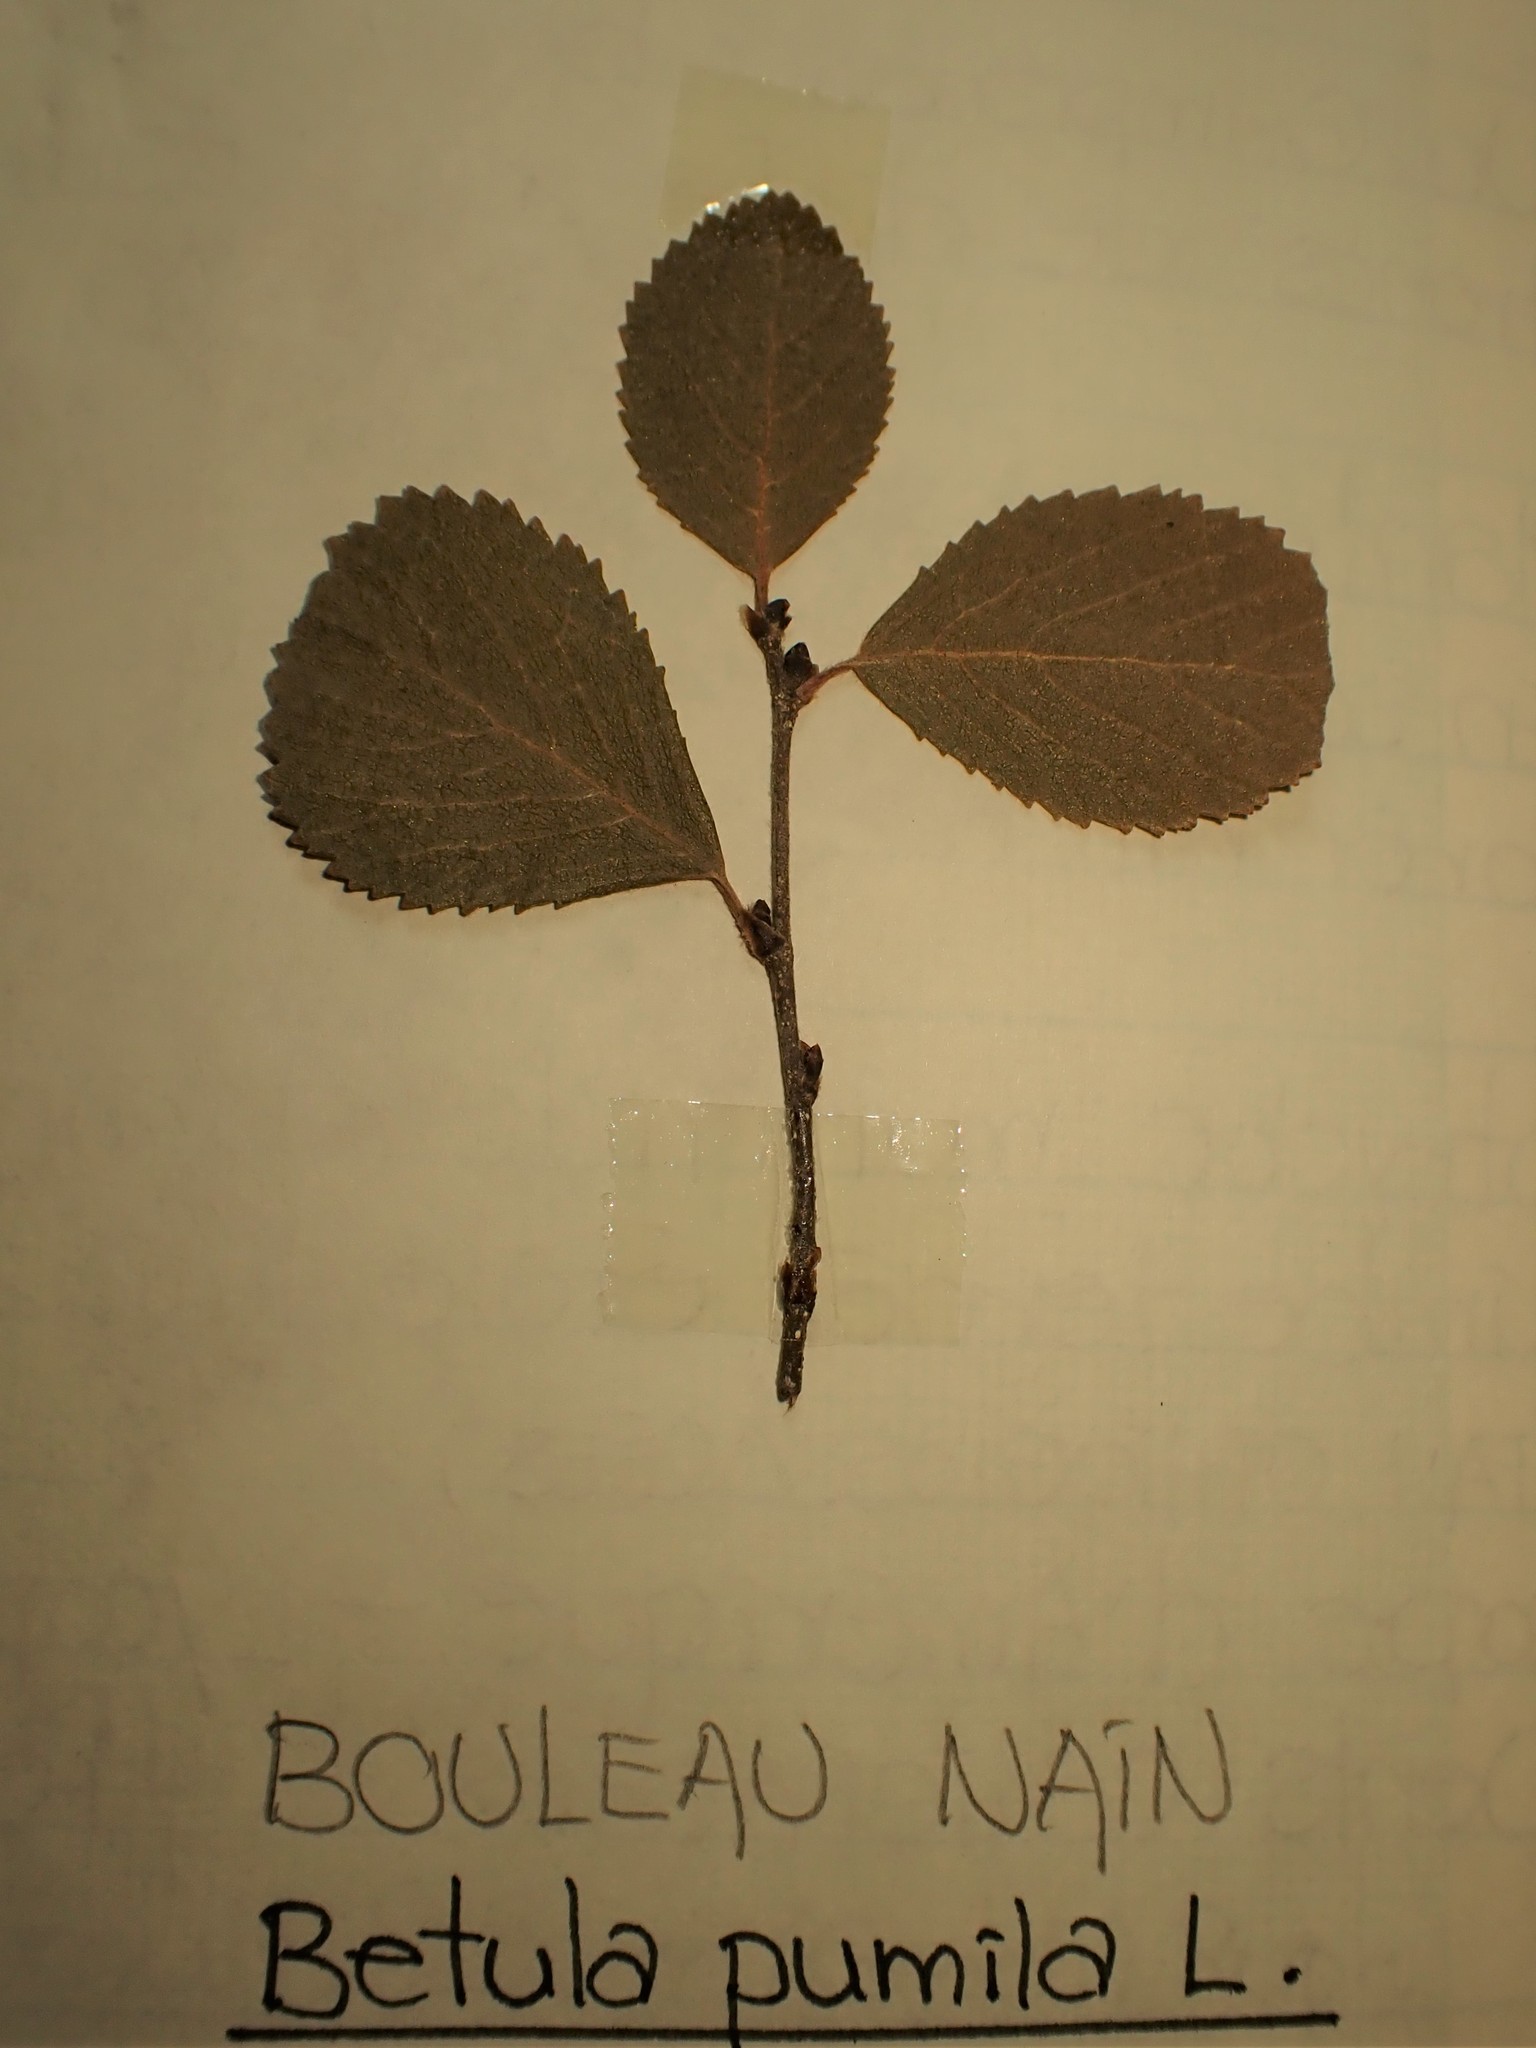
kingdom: Plantae
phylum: Tracheophyta
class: Magnoliopsida
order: Fagales
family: Betulaceae
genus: Betula
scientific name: Betula pumila
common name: Bog birch
